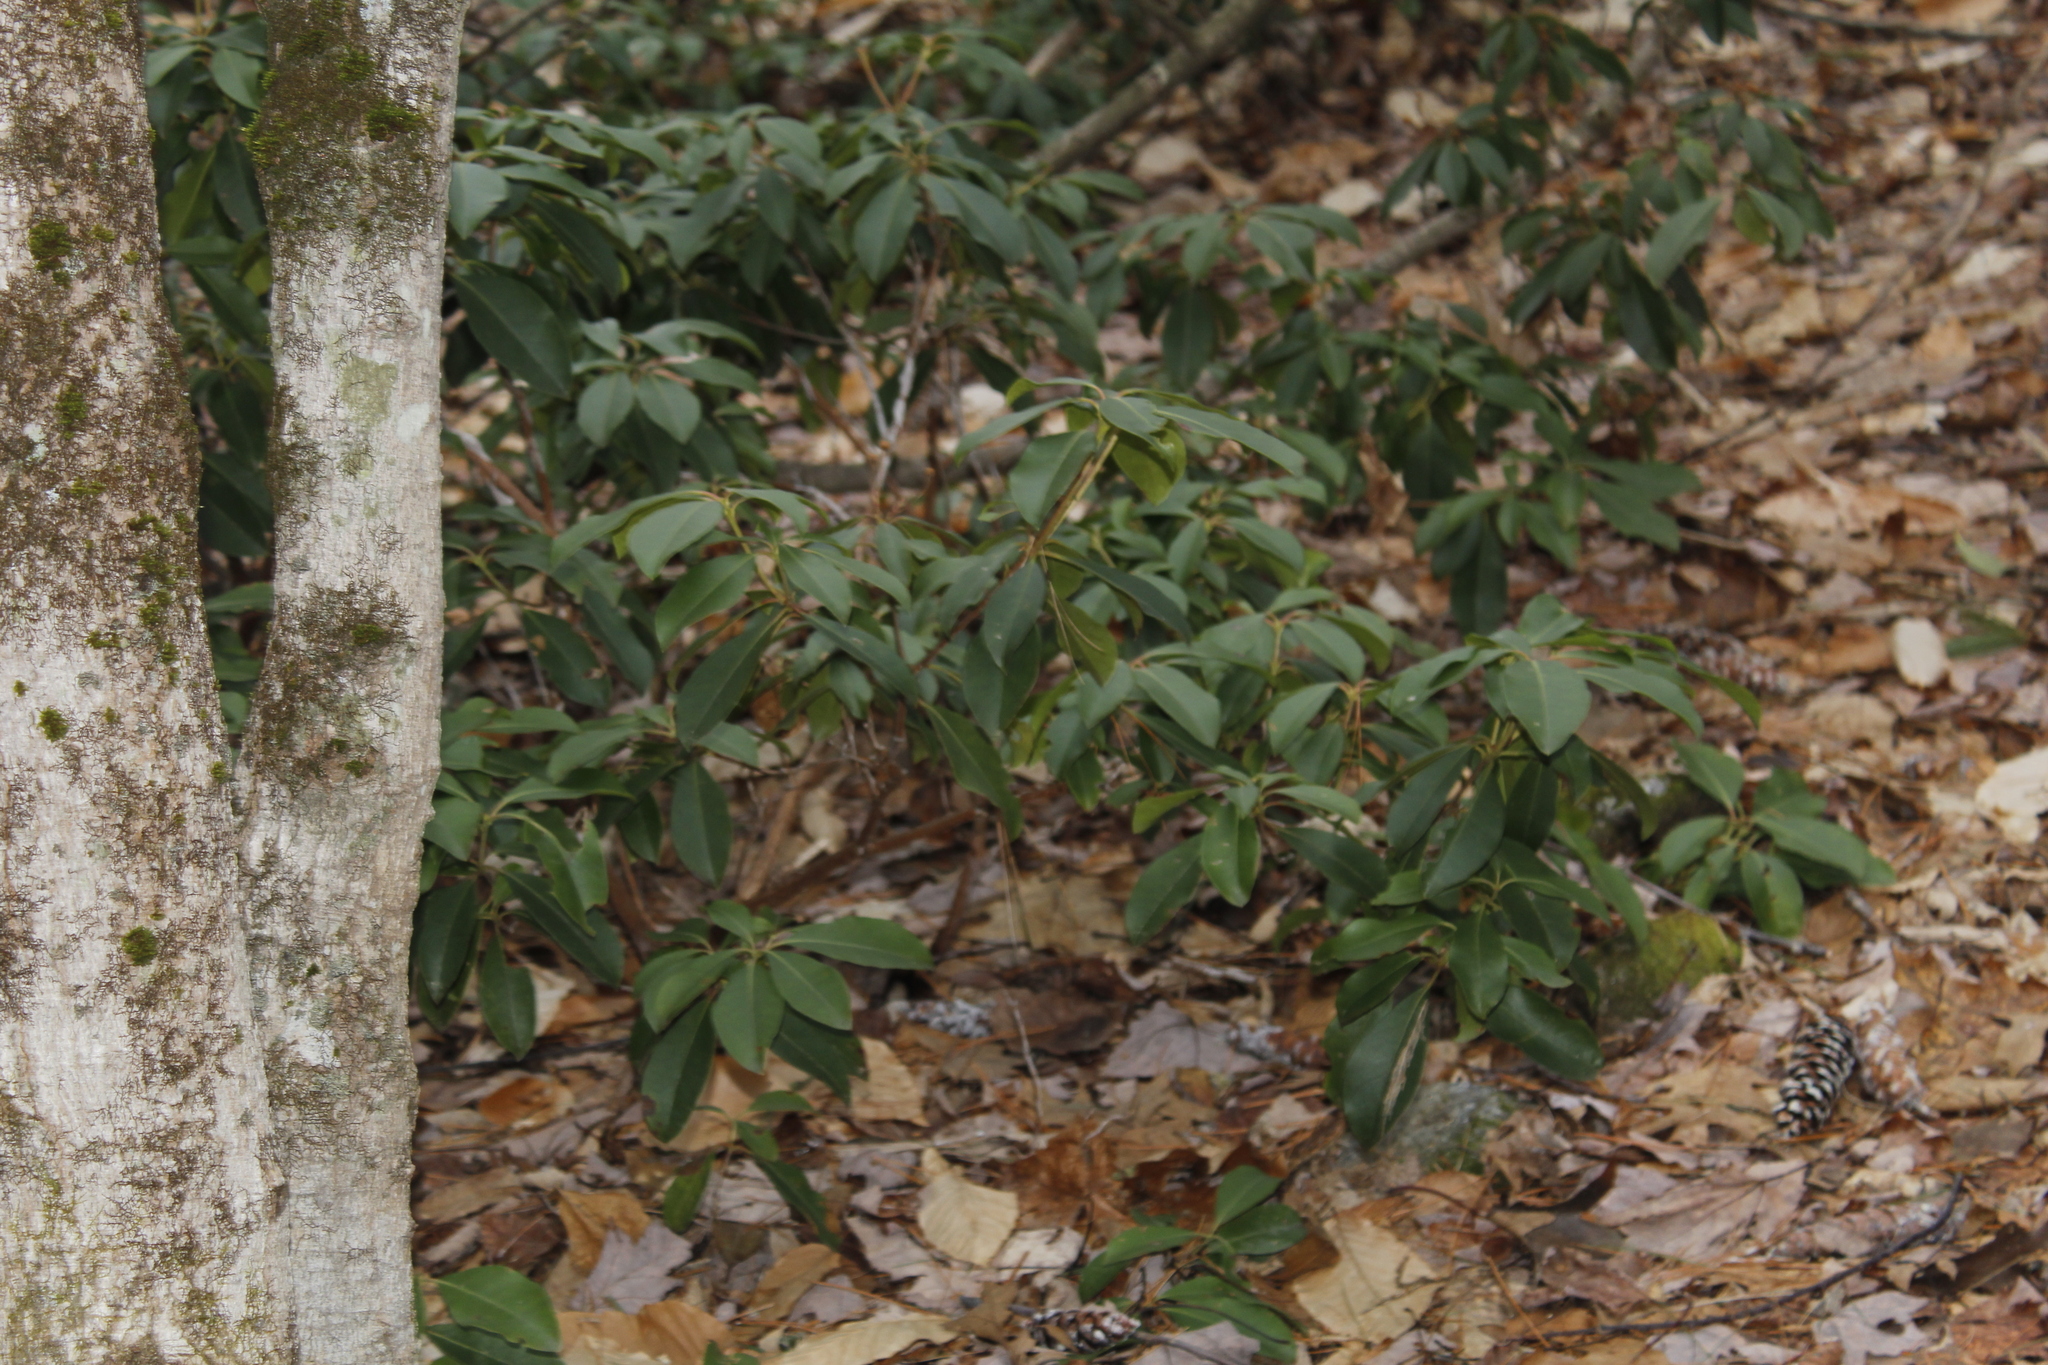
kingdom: Plantae
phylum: Tracheophyta
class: Magnoliopsida
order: Ericales
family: Ericaceae
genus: Kalmia
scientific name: Kalmia latifolia
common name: Mountain-laurel
